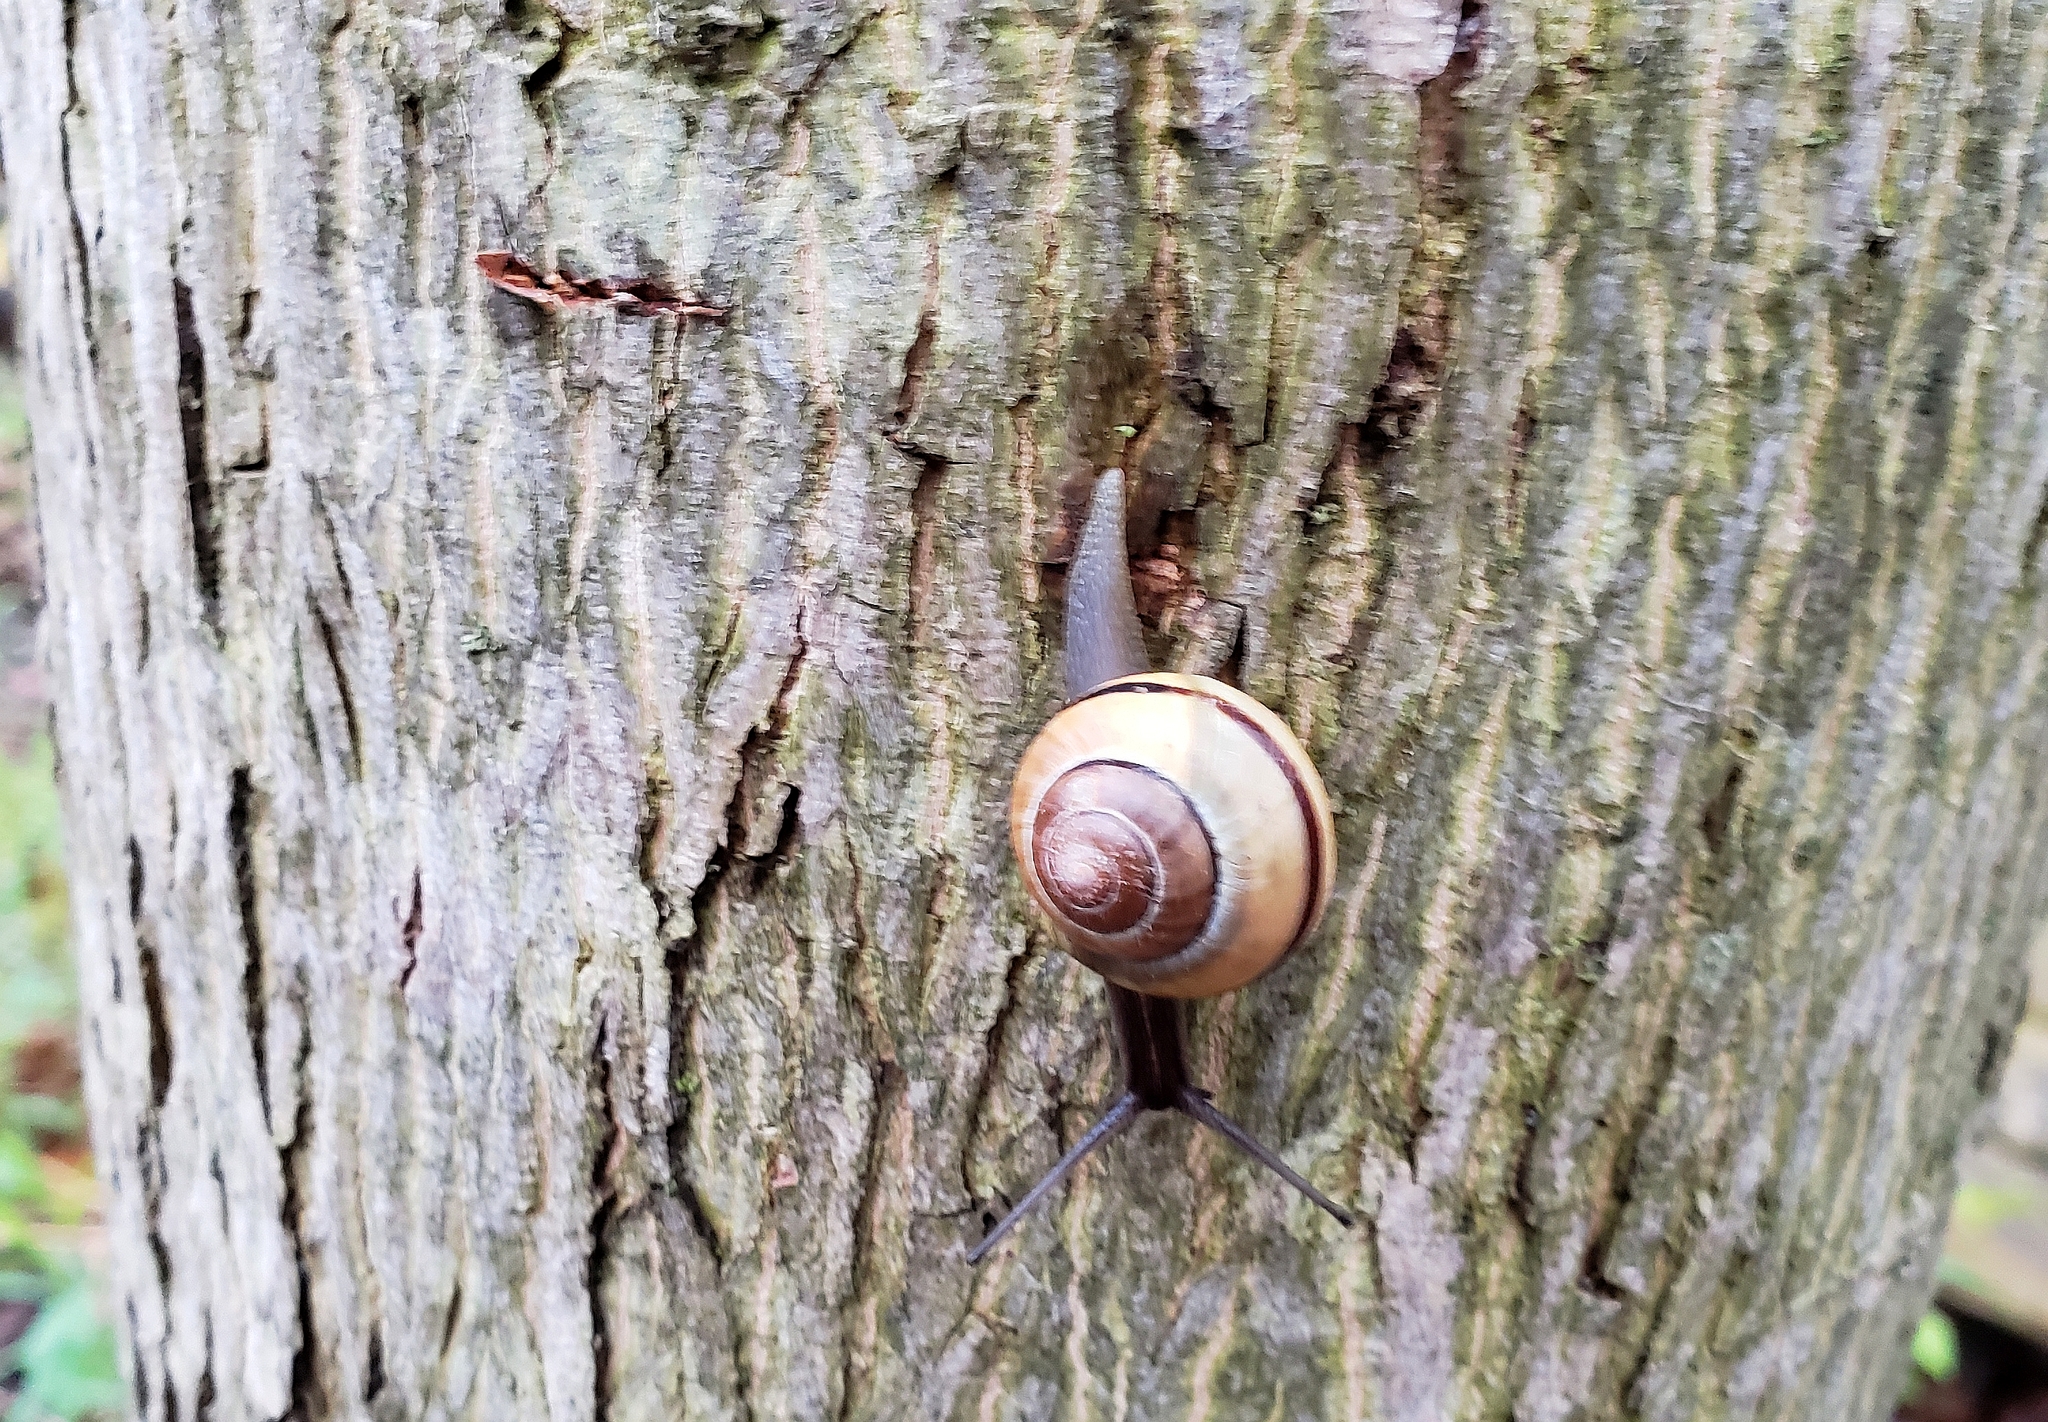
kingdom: Animalia
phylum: Mollusca
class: Gastropoda
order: Stylommatophora
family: Helicidae
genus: Cepaea
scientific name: Cepaea nemoralis
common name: Grovesnail
